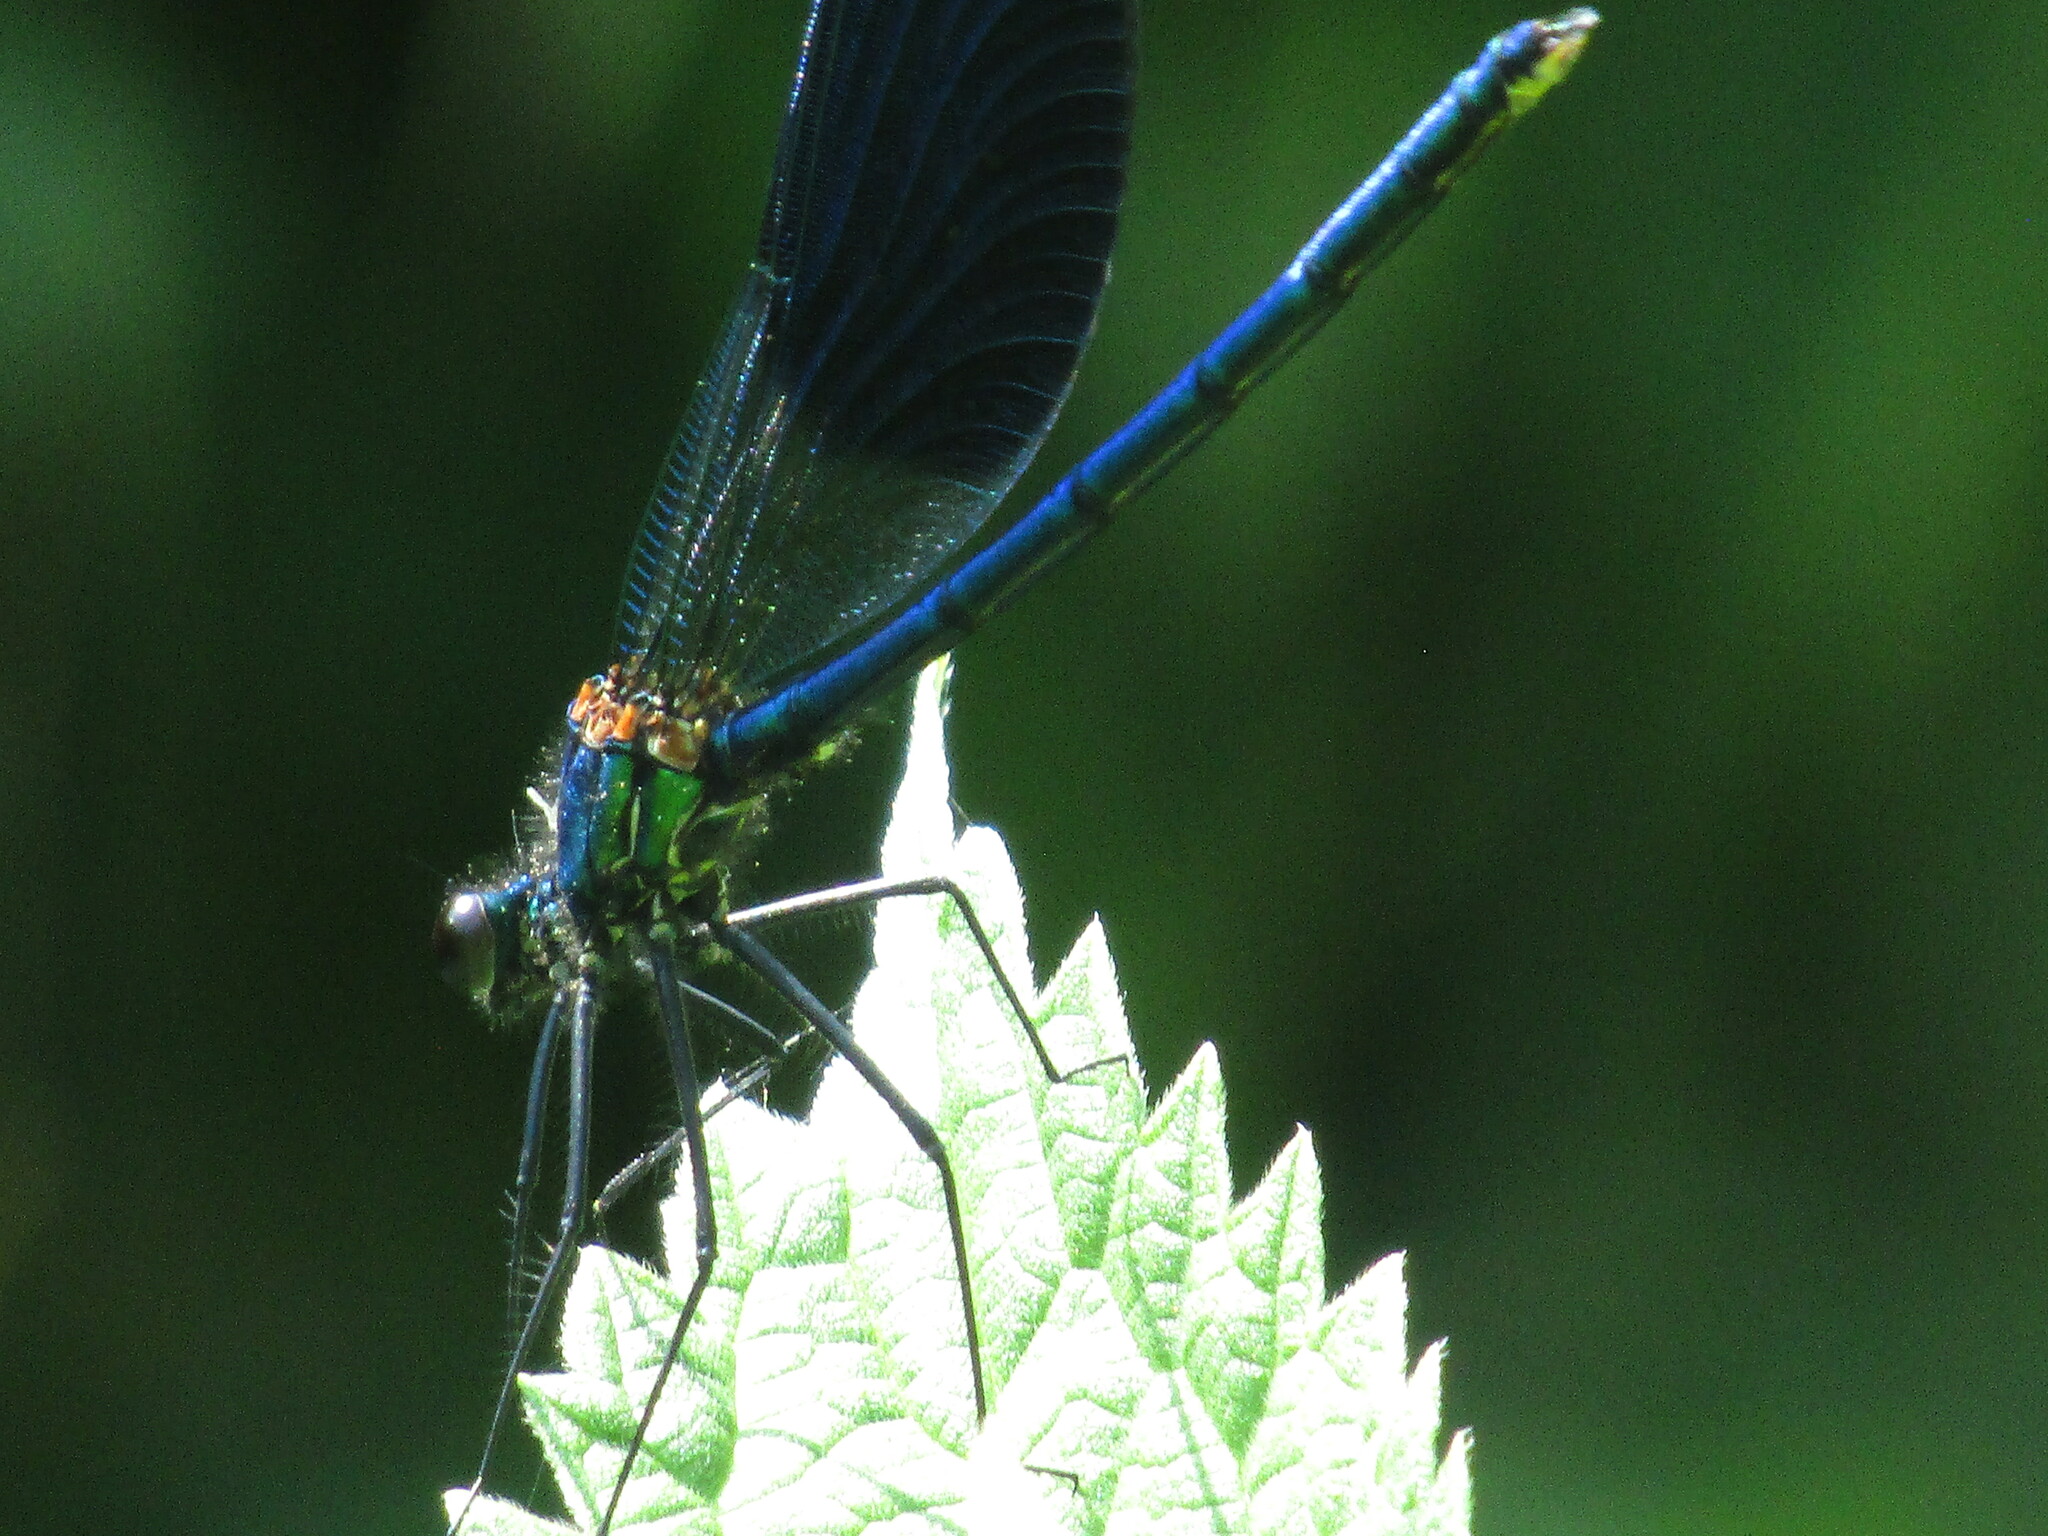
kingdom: Animalia
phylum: Arthropoda
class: Insecta
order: Odonata
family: Calopterygidae
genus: Calopteryx
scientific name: Calopteryx splendens
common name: Banded demoiselle
